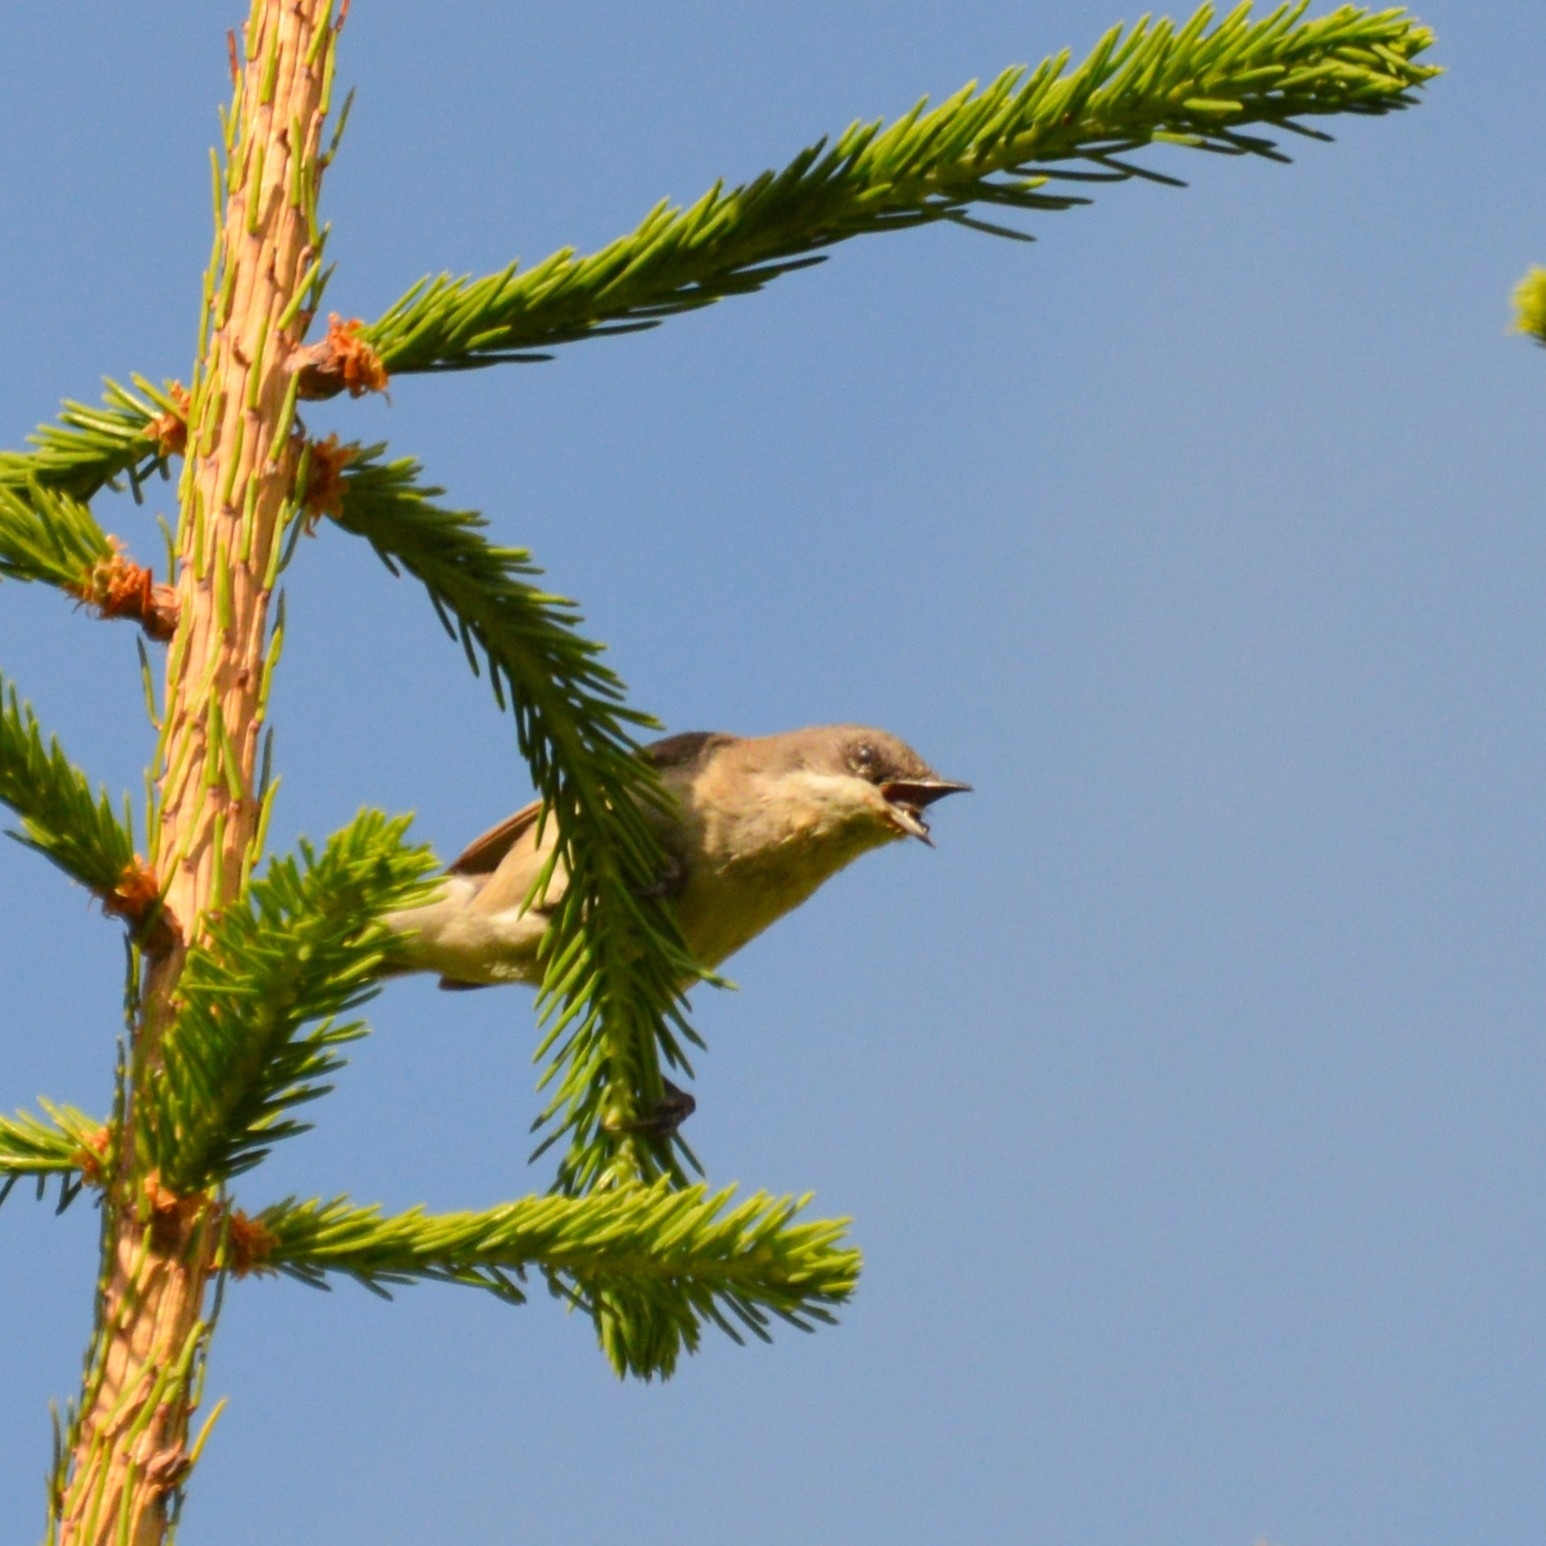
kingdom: Animalia
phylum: Chordata
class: Aves
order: Passeriformes
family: Sylviidae
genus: Sylvia
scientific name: Sylvia curruca
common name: Lesser whitethroat
